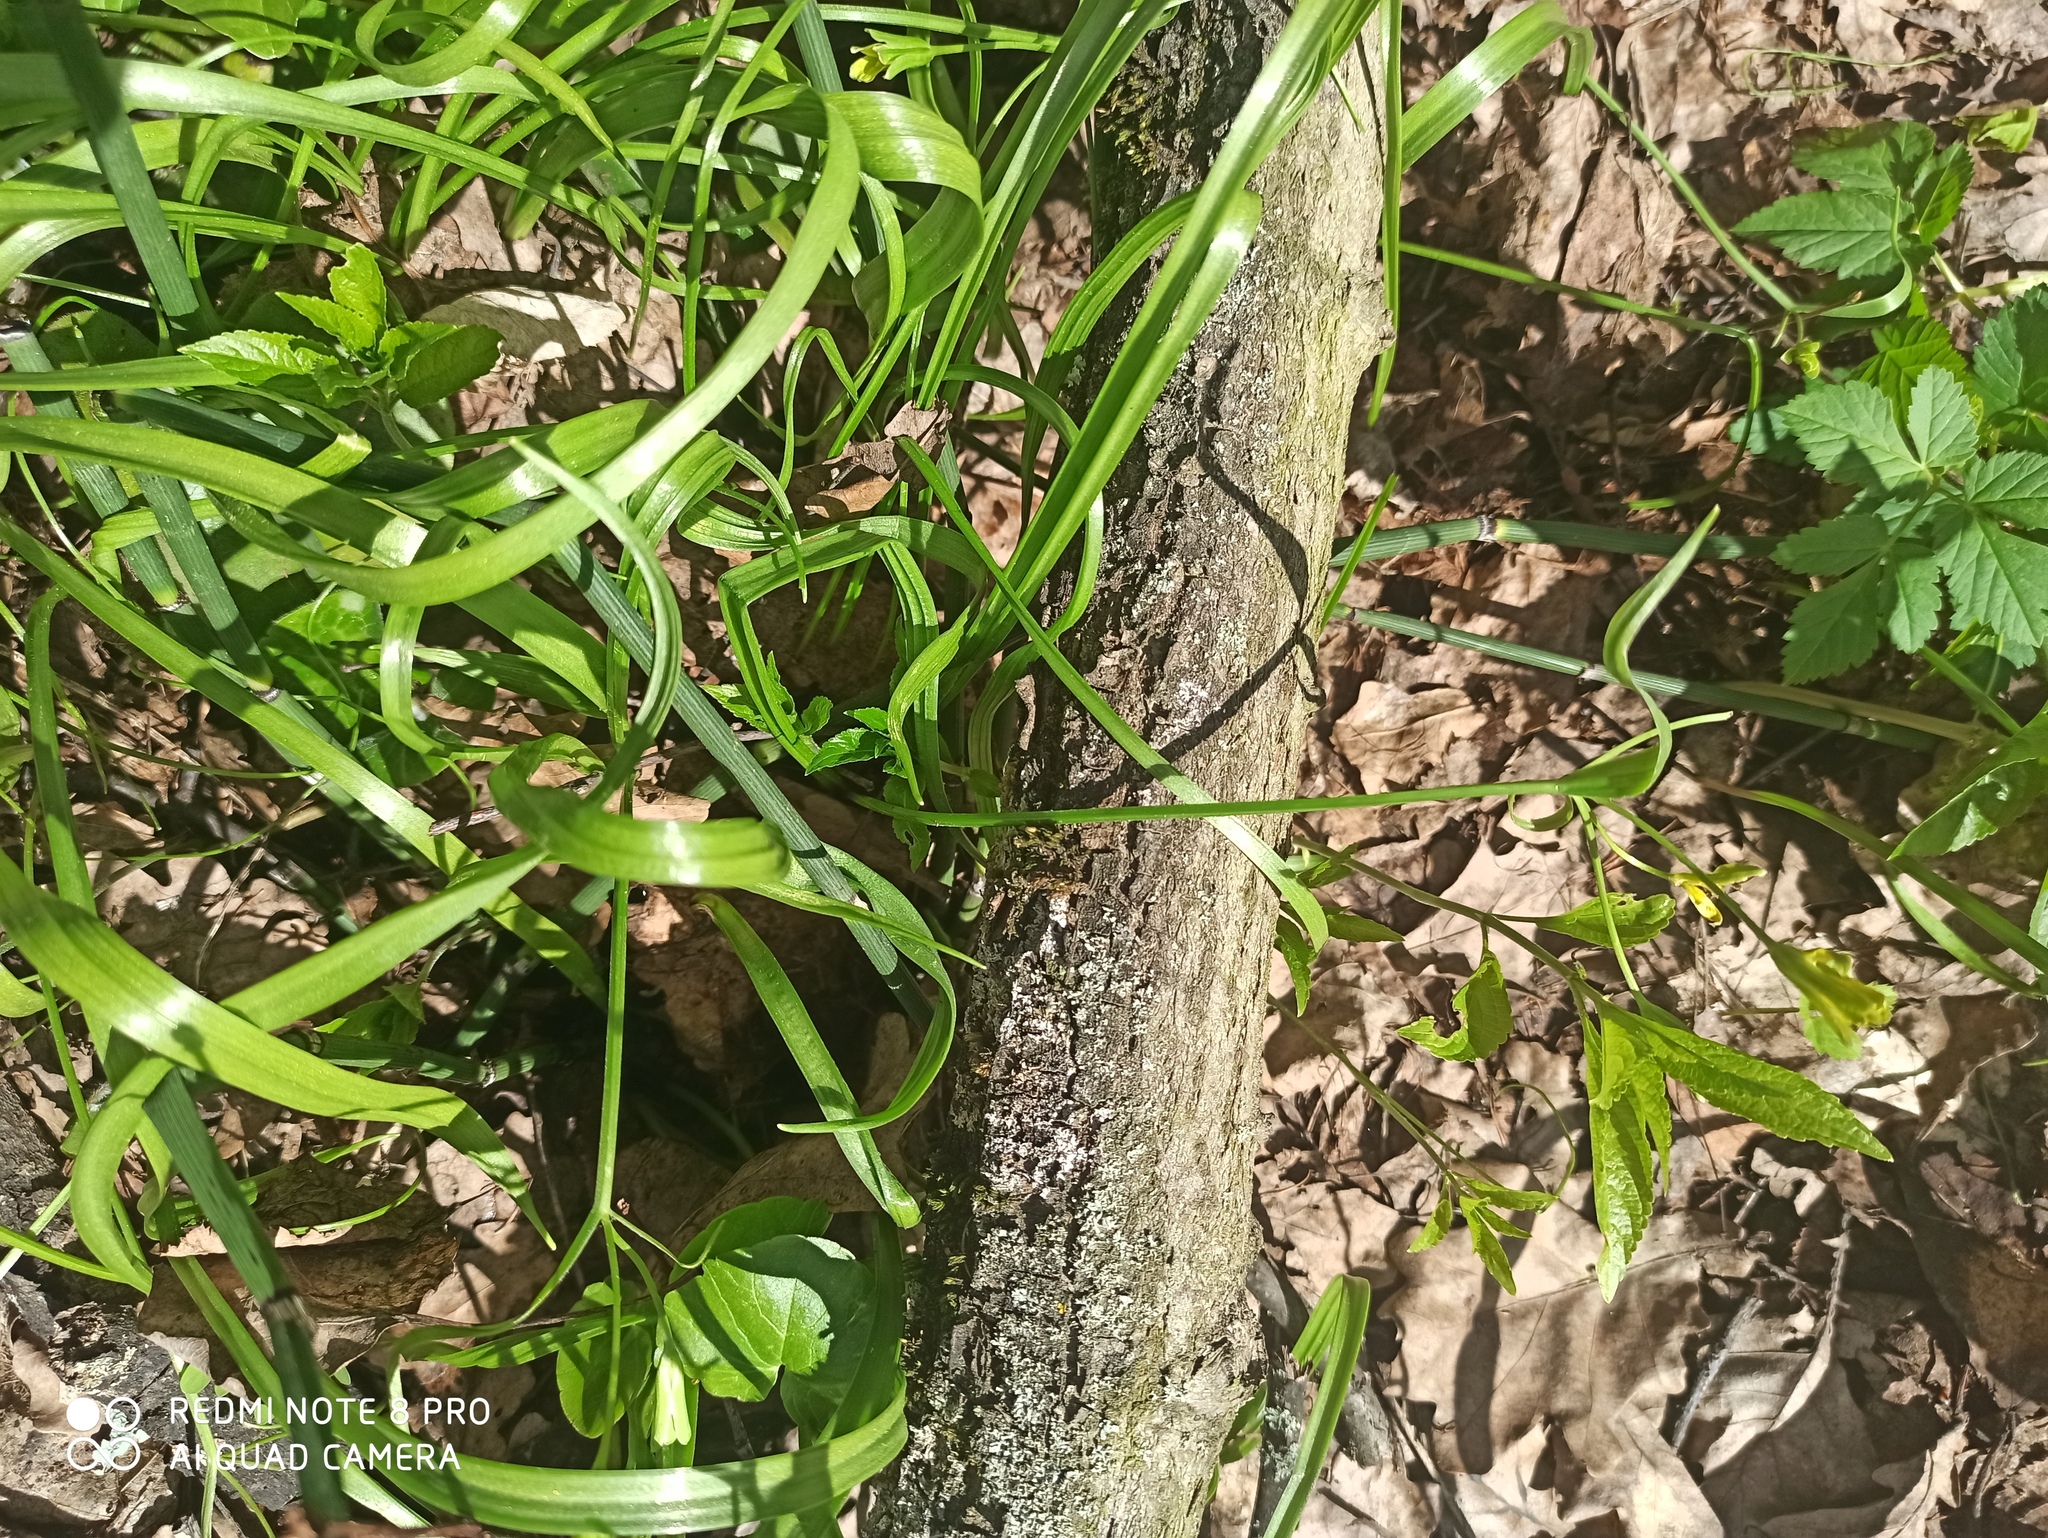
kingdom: Plantae
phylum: Tracheophyta
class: Liliopsida
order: Liliales
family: Liliaceae
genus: Gagea
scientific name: Gagea lutea
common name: Yellow star-of-bethlehem
